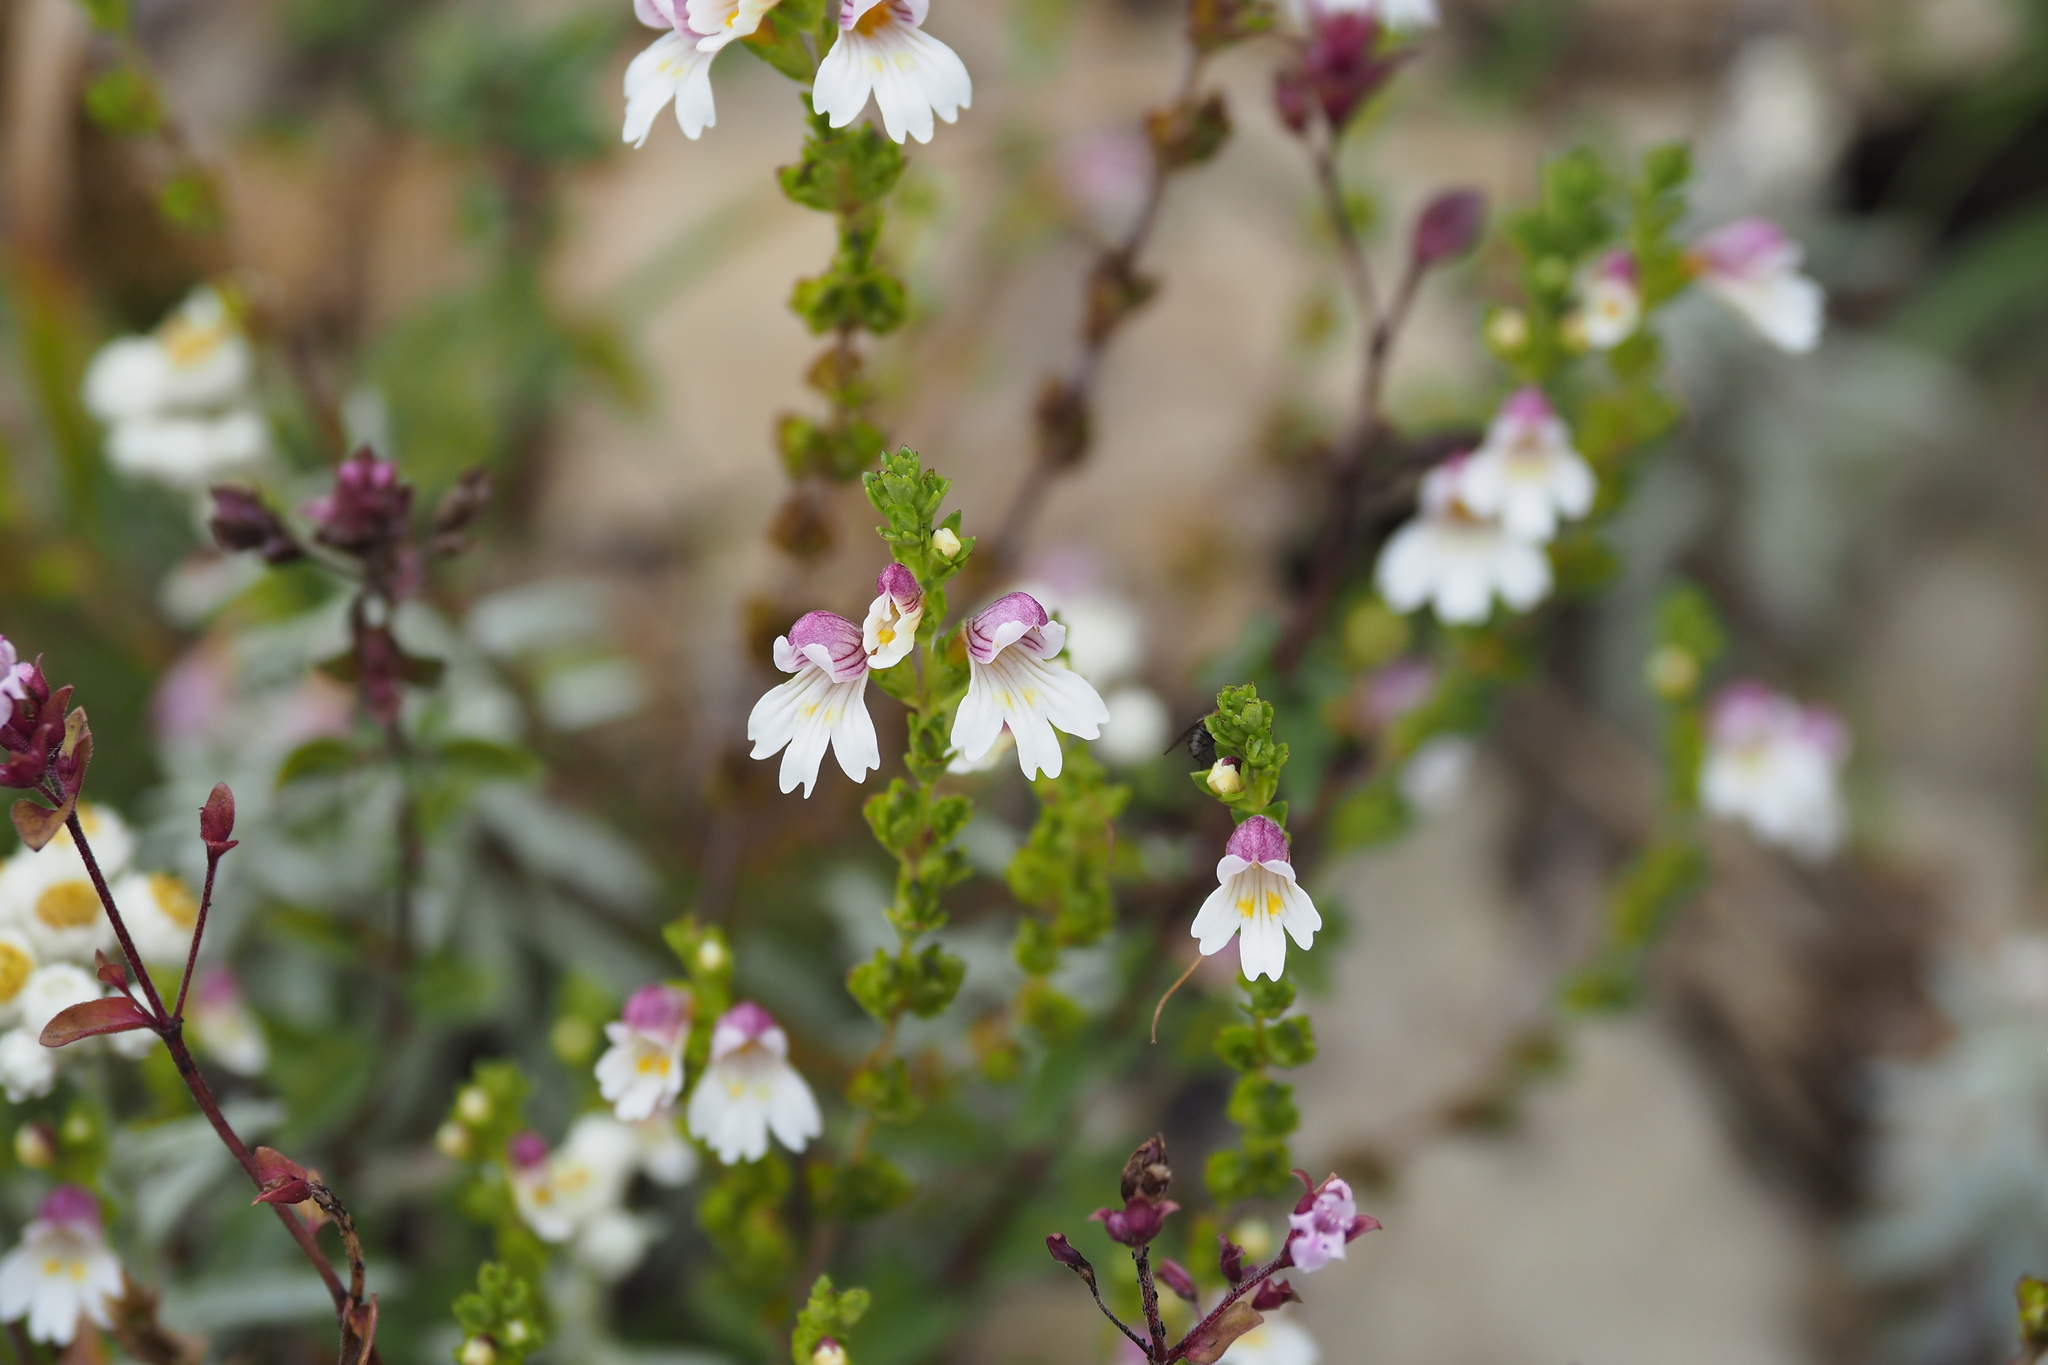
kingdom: Plantae
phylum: Tracheophyta
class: Magnoliopsida
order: Lamiales
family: Orobanchaceae
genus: Euphrasia
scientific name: Euphrasia transmorrisonensis
